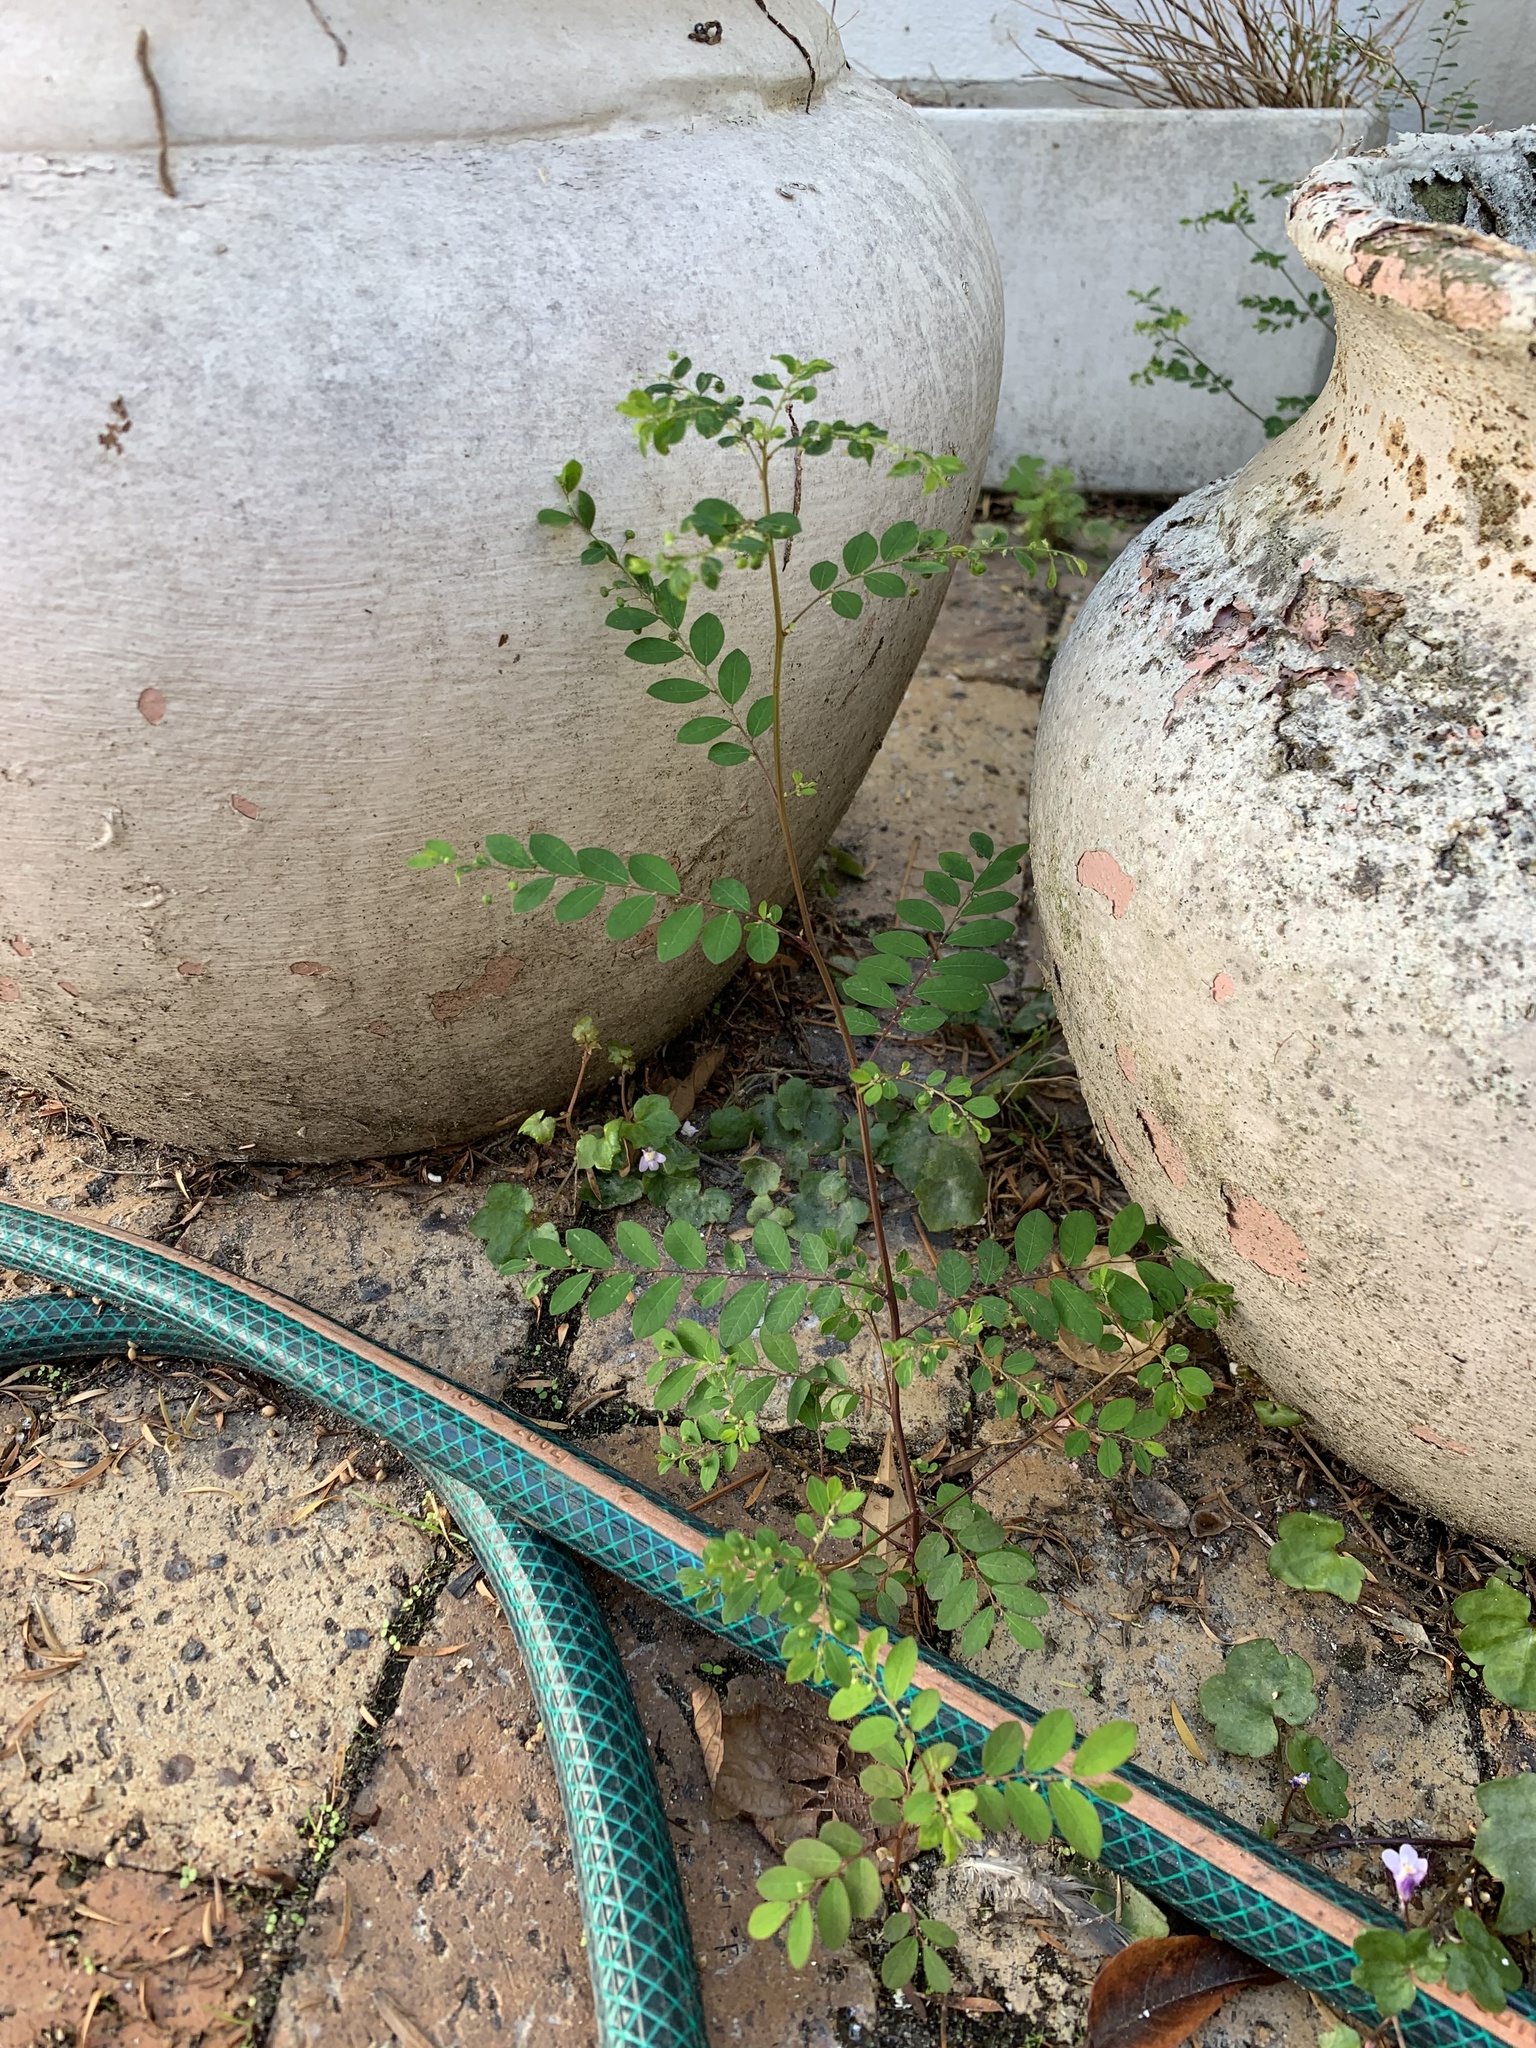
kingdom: Plantae
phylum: Tracheophyta
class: Magnoliopsida
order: Malpighiales
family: Phyllanthaceae
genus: Phyllanthus
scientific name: Phyllanthus tenellus
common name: Mascarene island leaf-flower
